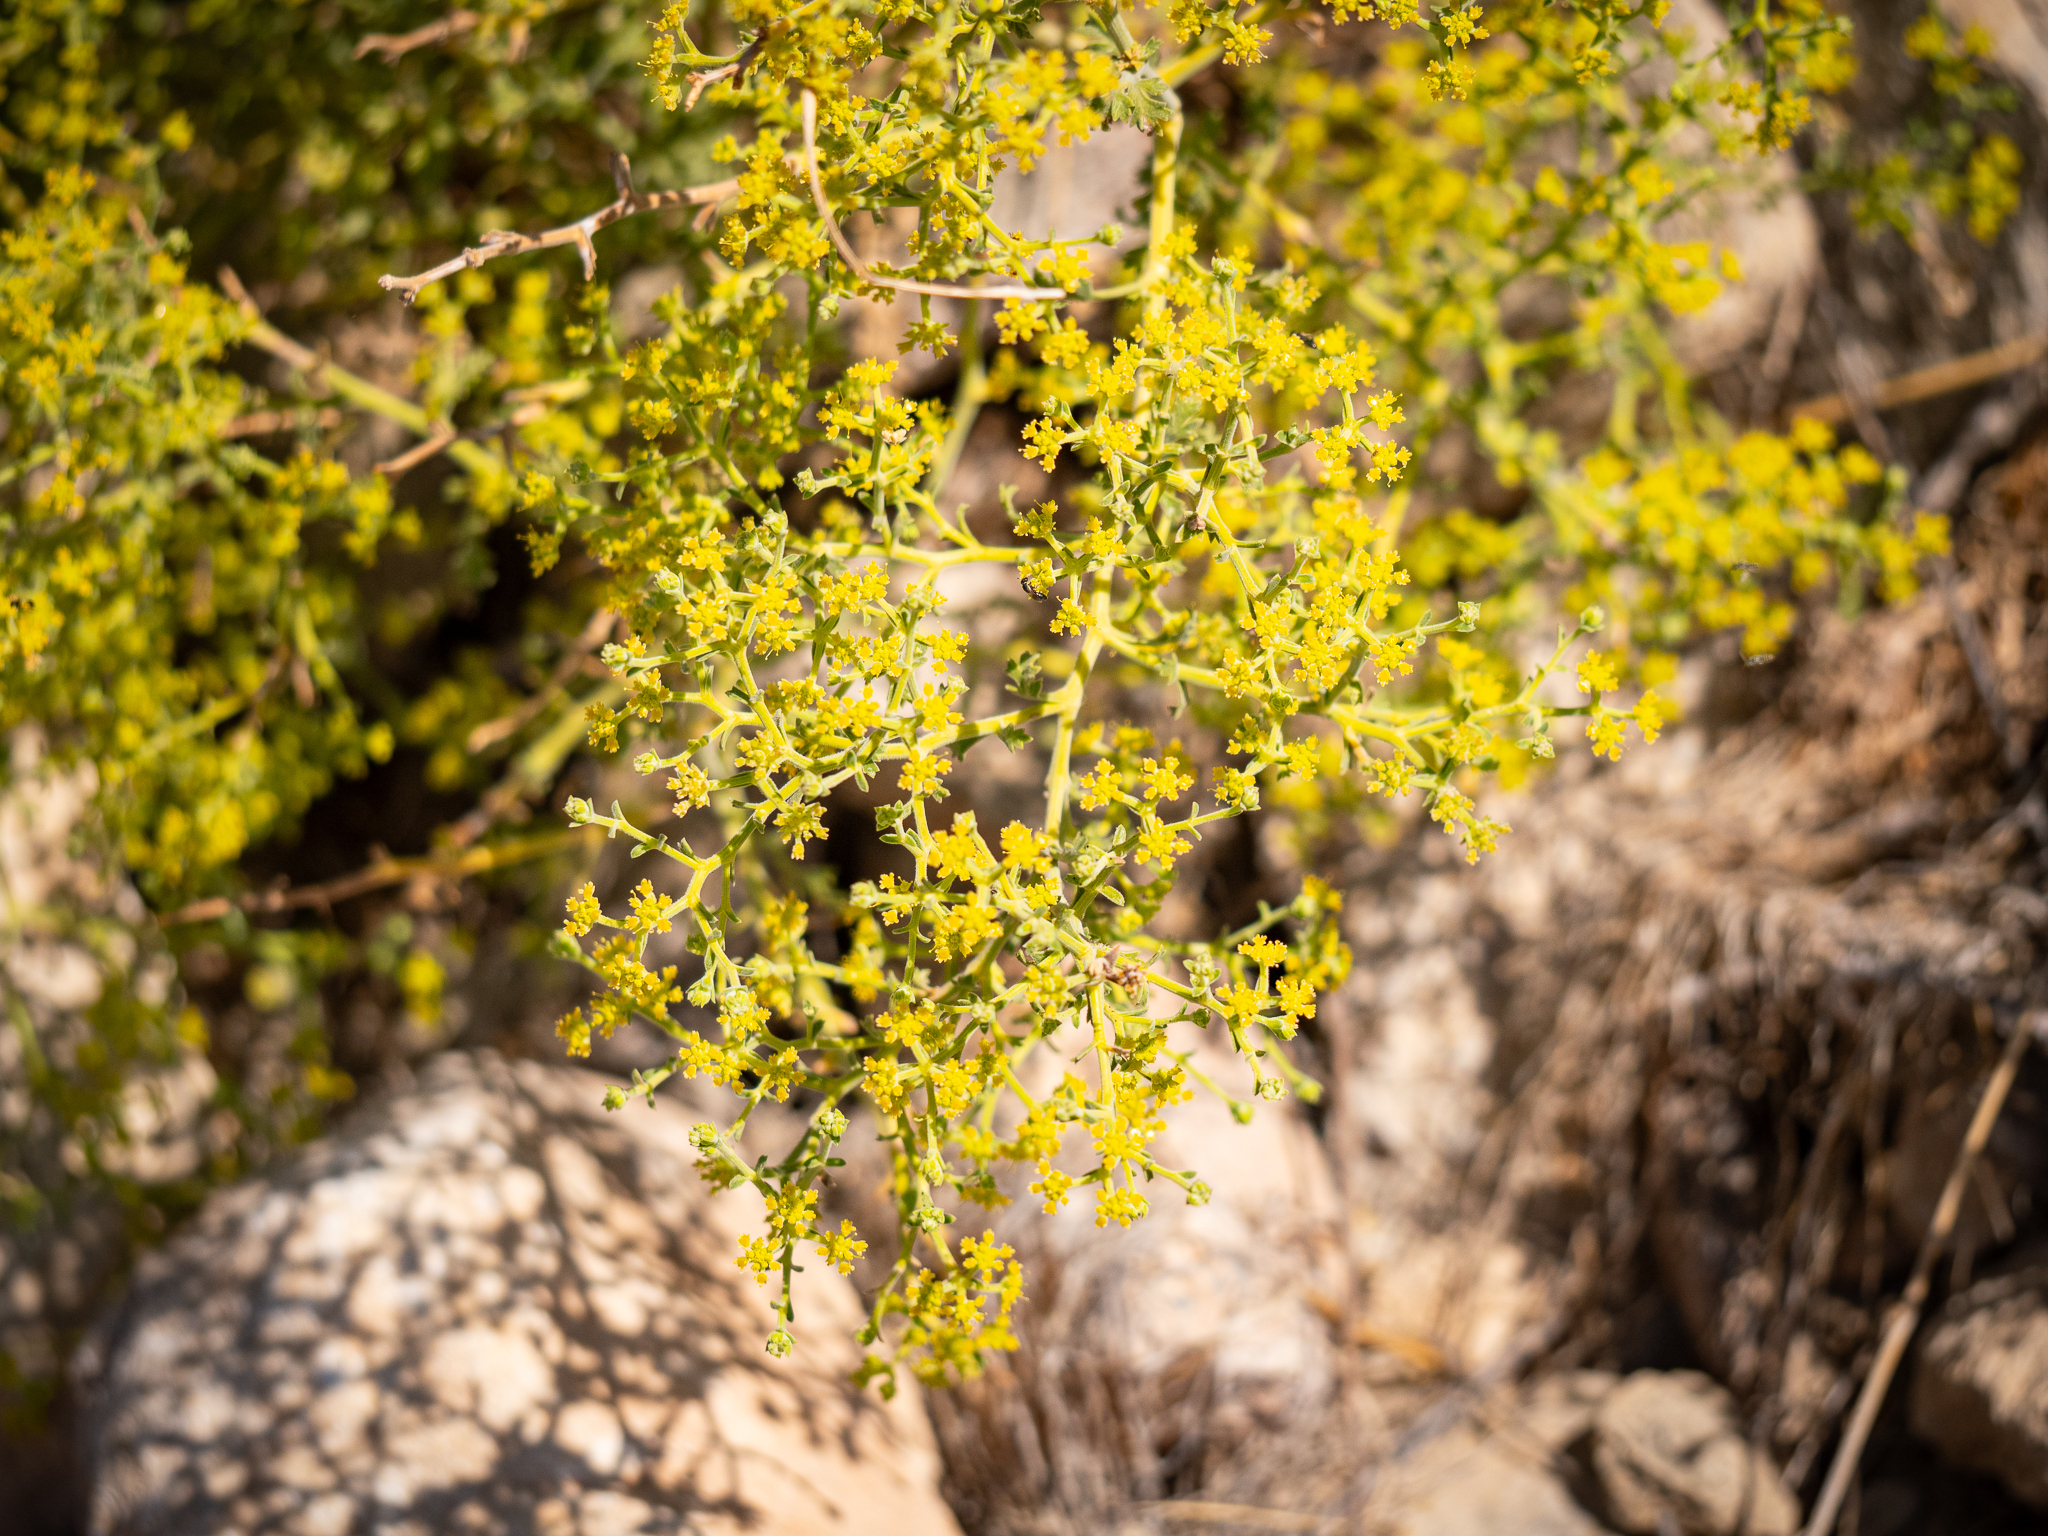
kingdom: Plantae
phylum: Tracheophyta
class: Magnoliopsida
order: Apiales
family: Apiaceae
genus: Echinophora
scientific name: Echinophora sibthorpiana
